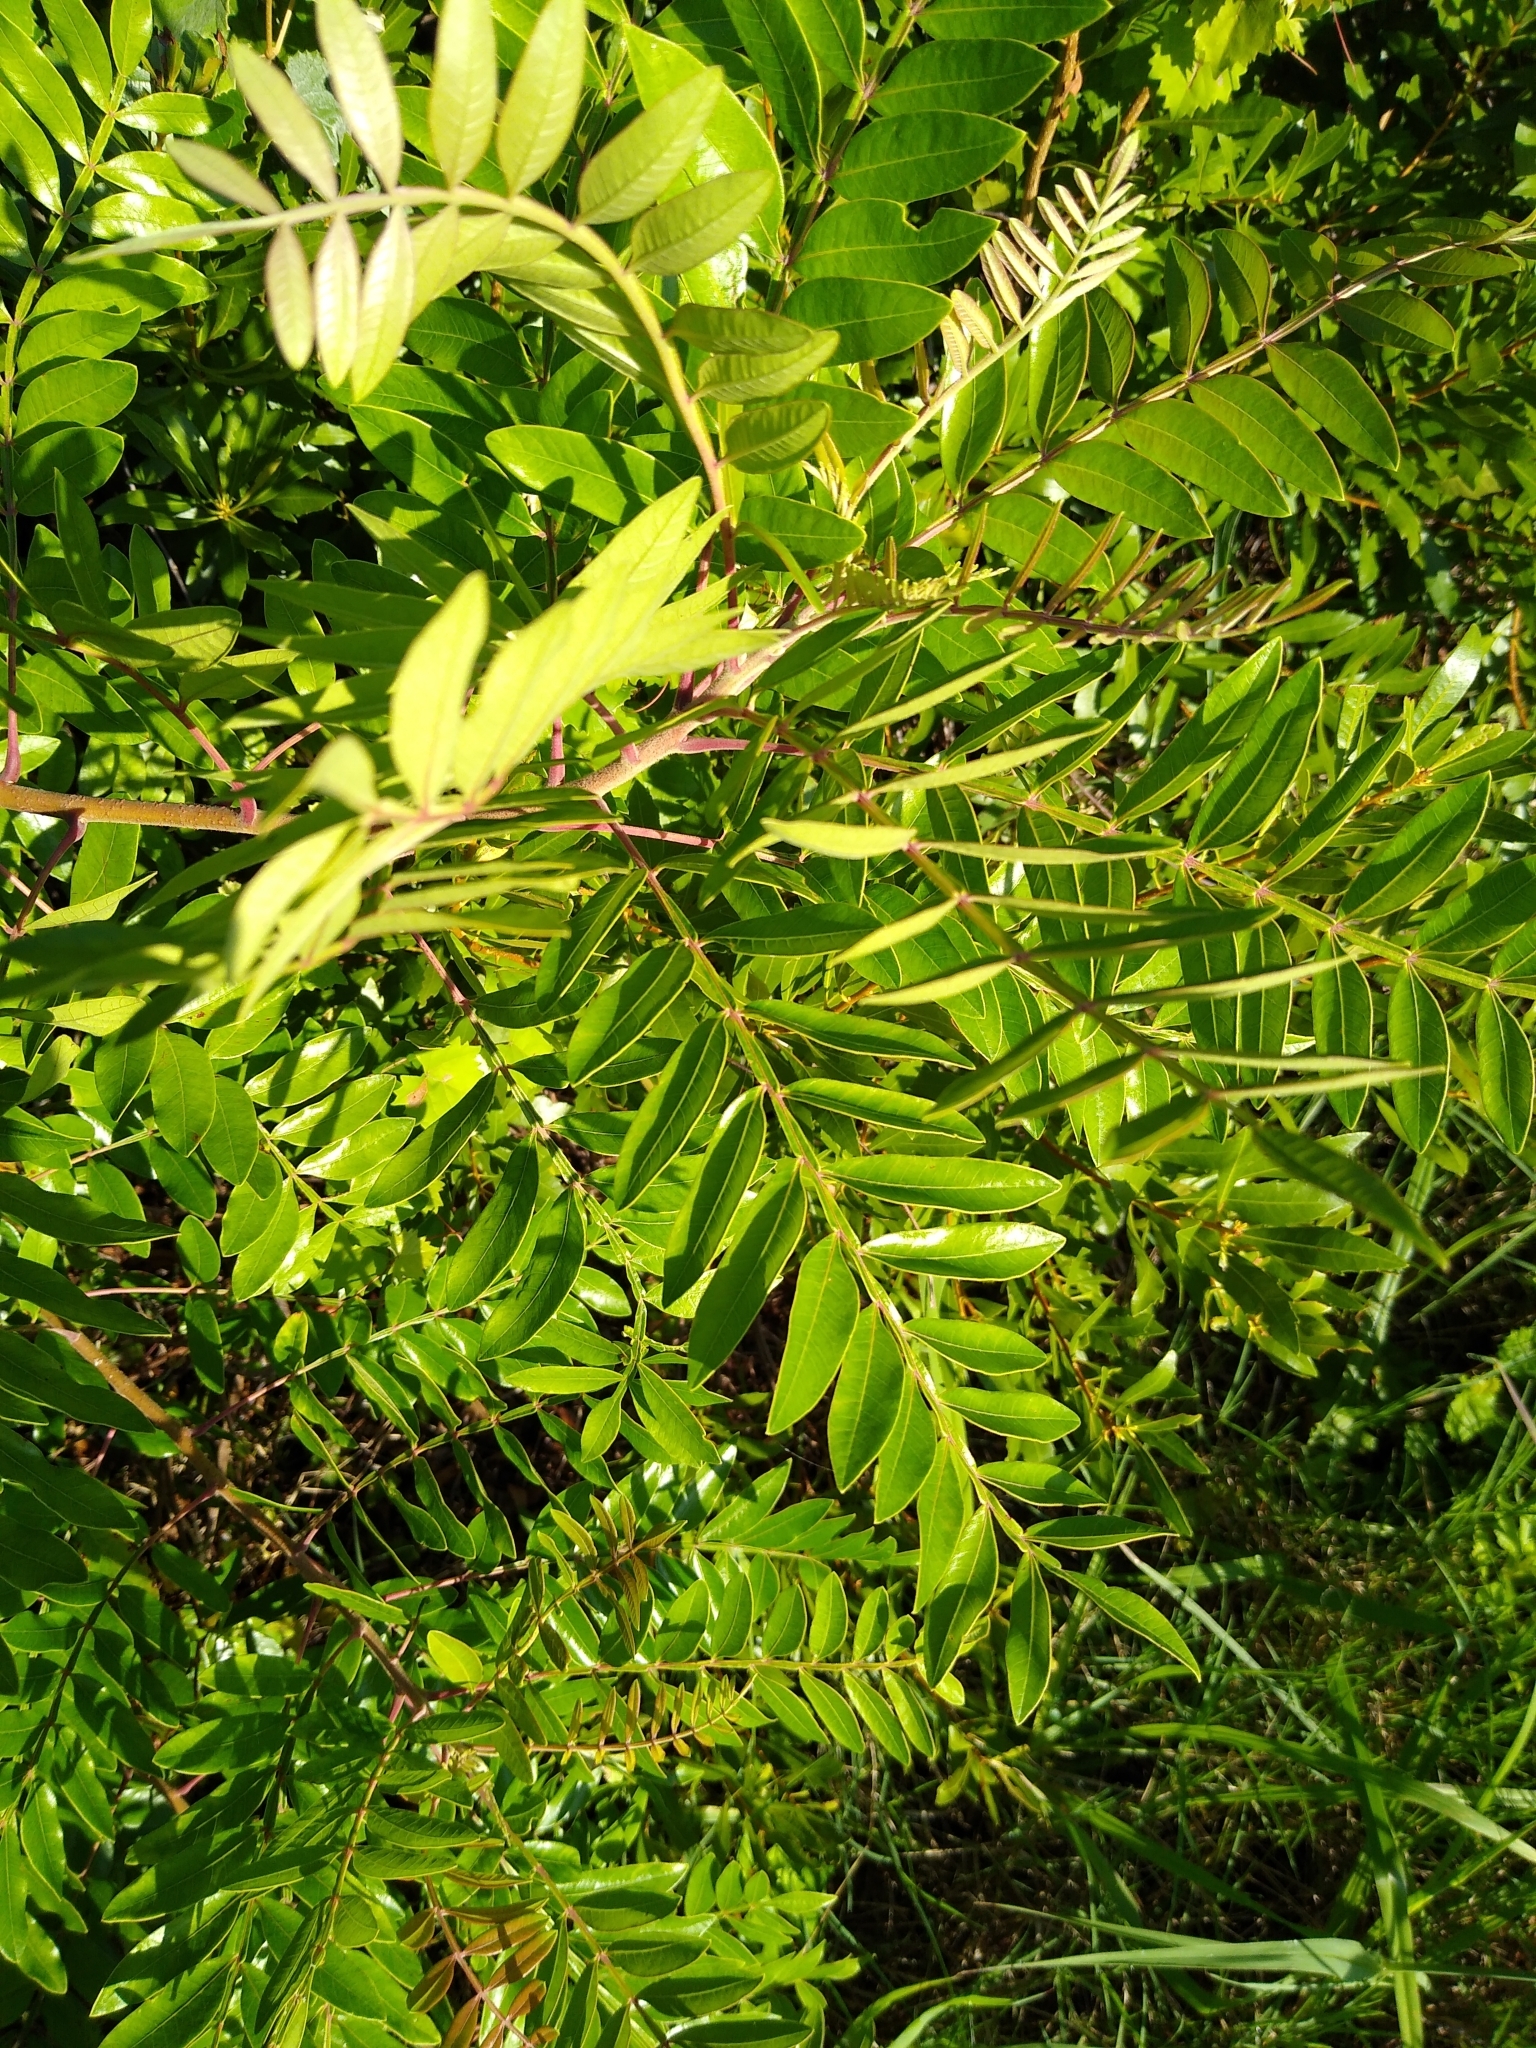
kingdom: Plantae
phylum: Tracheophyta
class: Magnoliopsida
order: Sapindales
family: Anacardiaceae
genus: Rhus
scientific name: Rhus copallina
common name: Shining sumac
